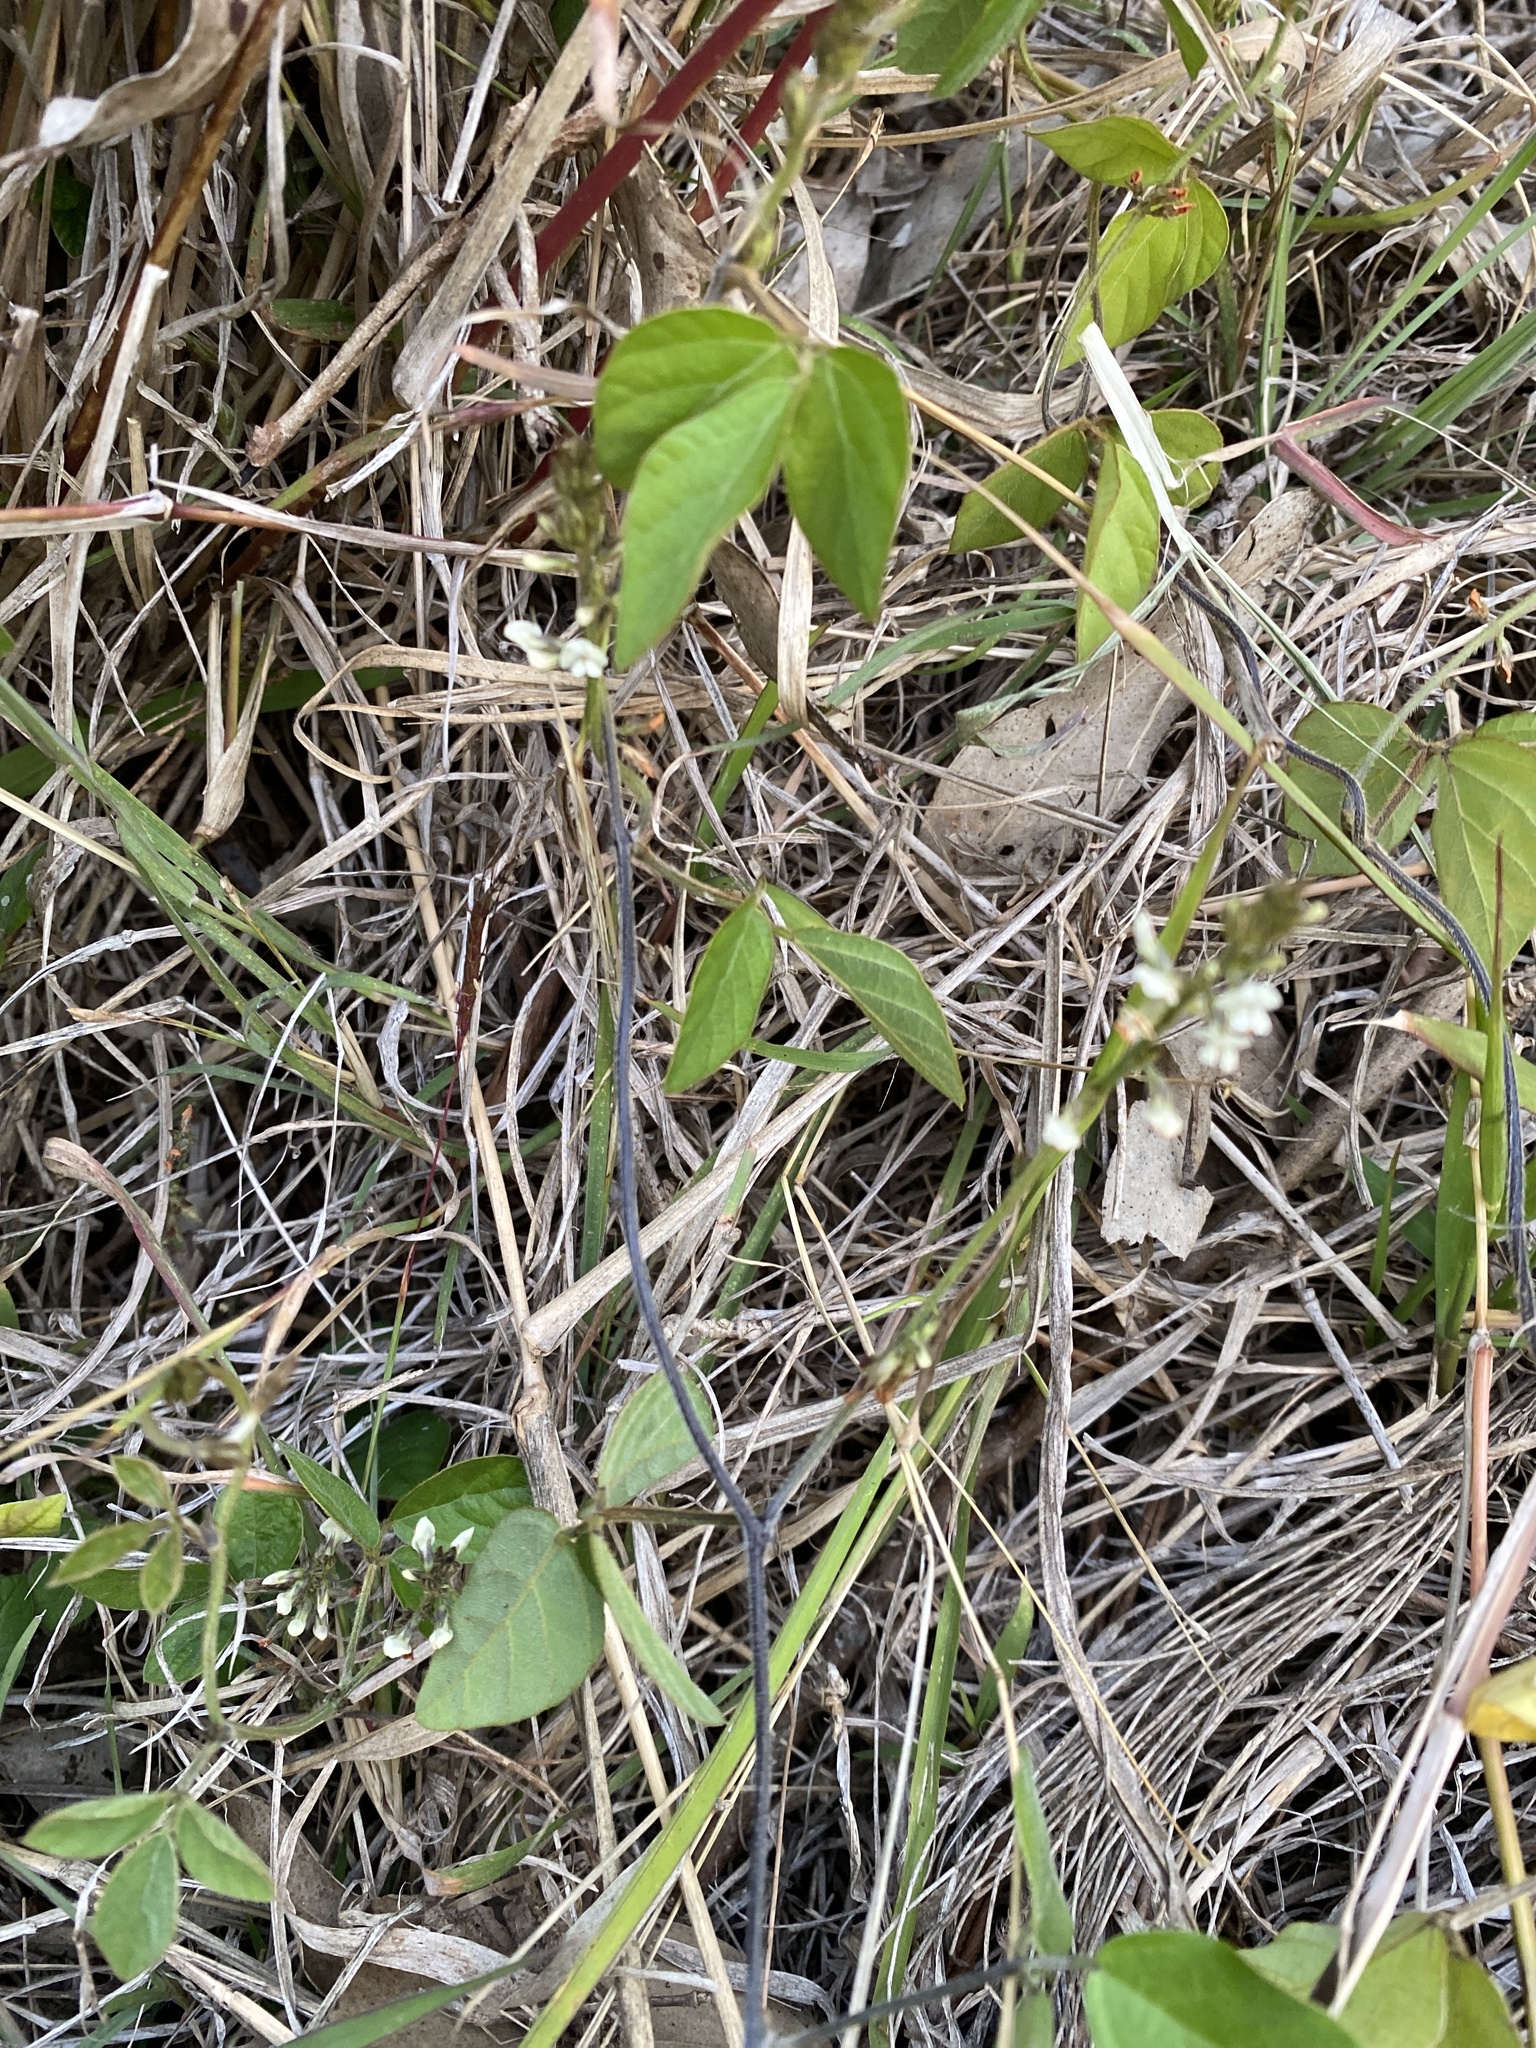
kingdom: Plantae
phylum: Tracheophyta
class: Magnoliopsida
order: Fabales
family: Fabaceae
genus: Neonotonia
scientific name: Neonotonia wightii
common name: Perennial soybean
